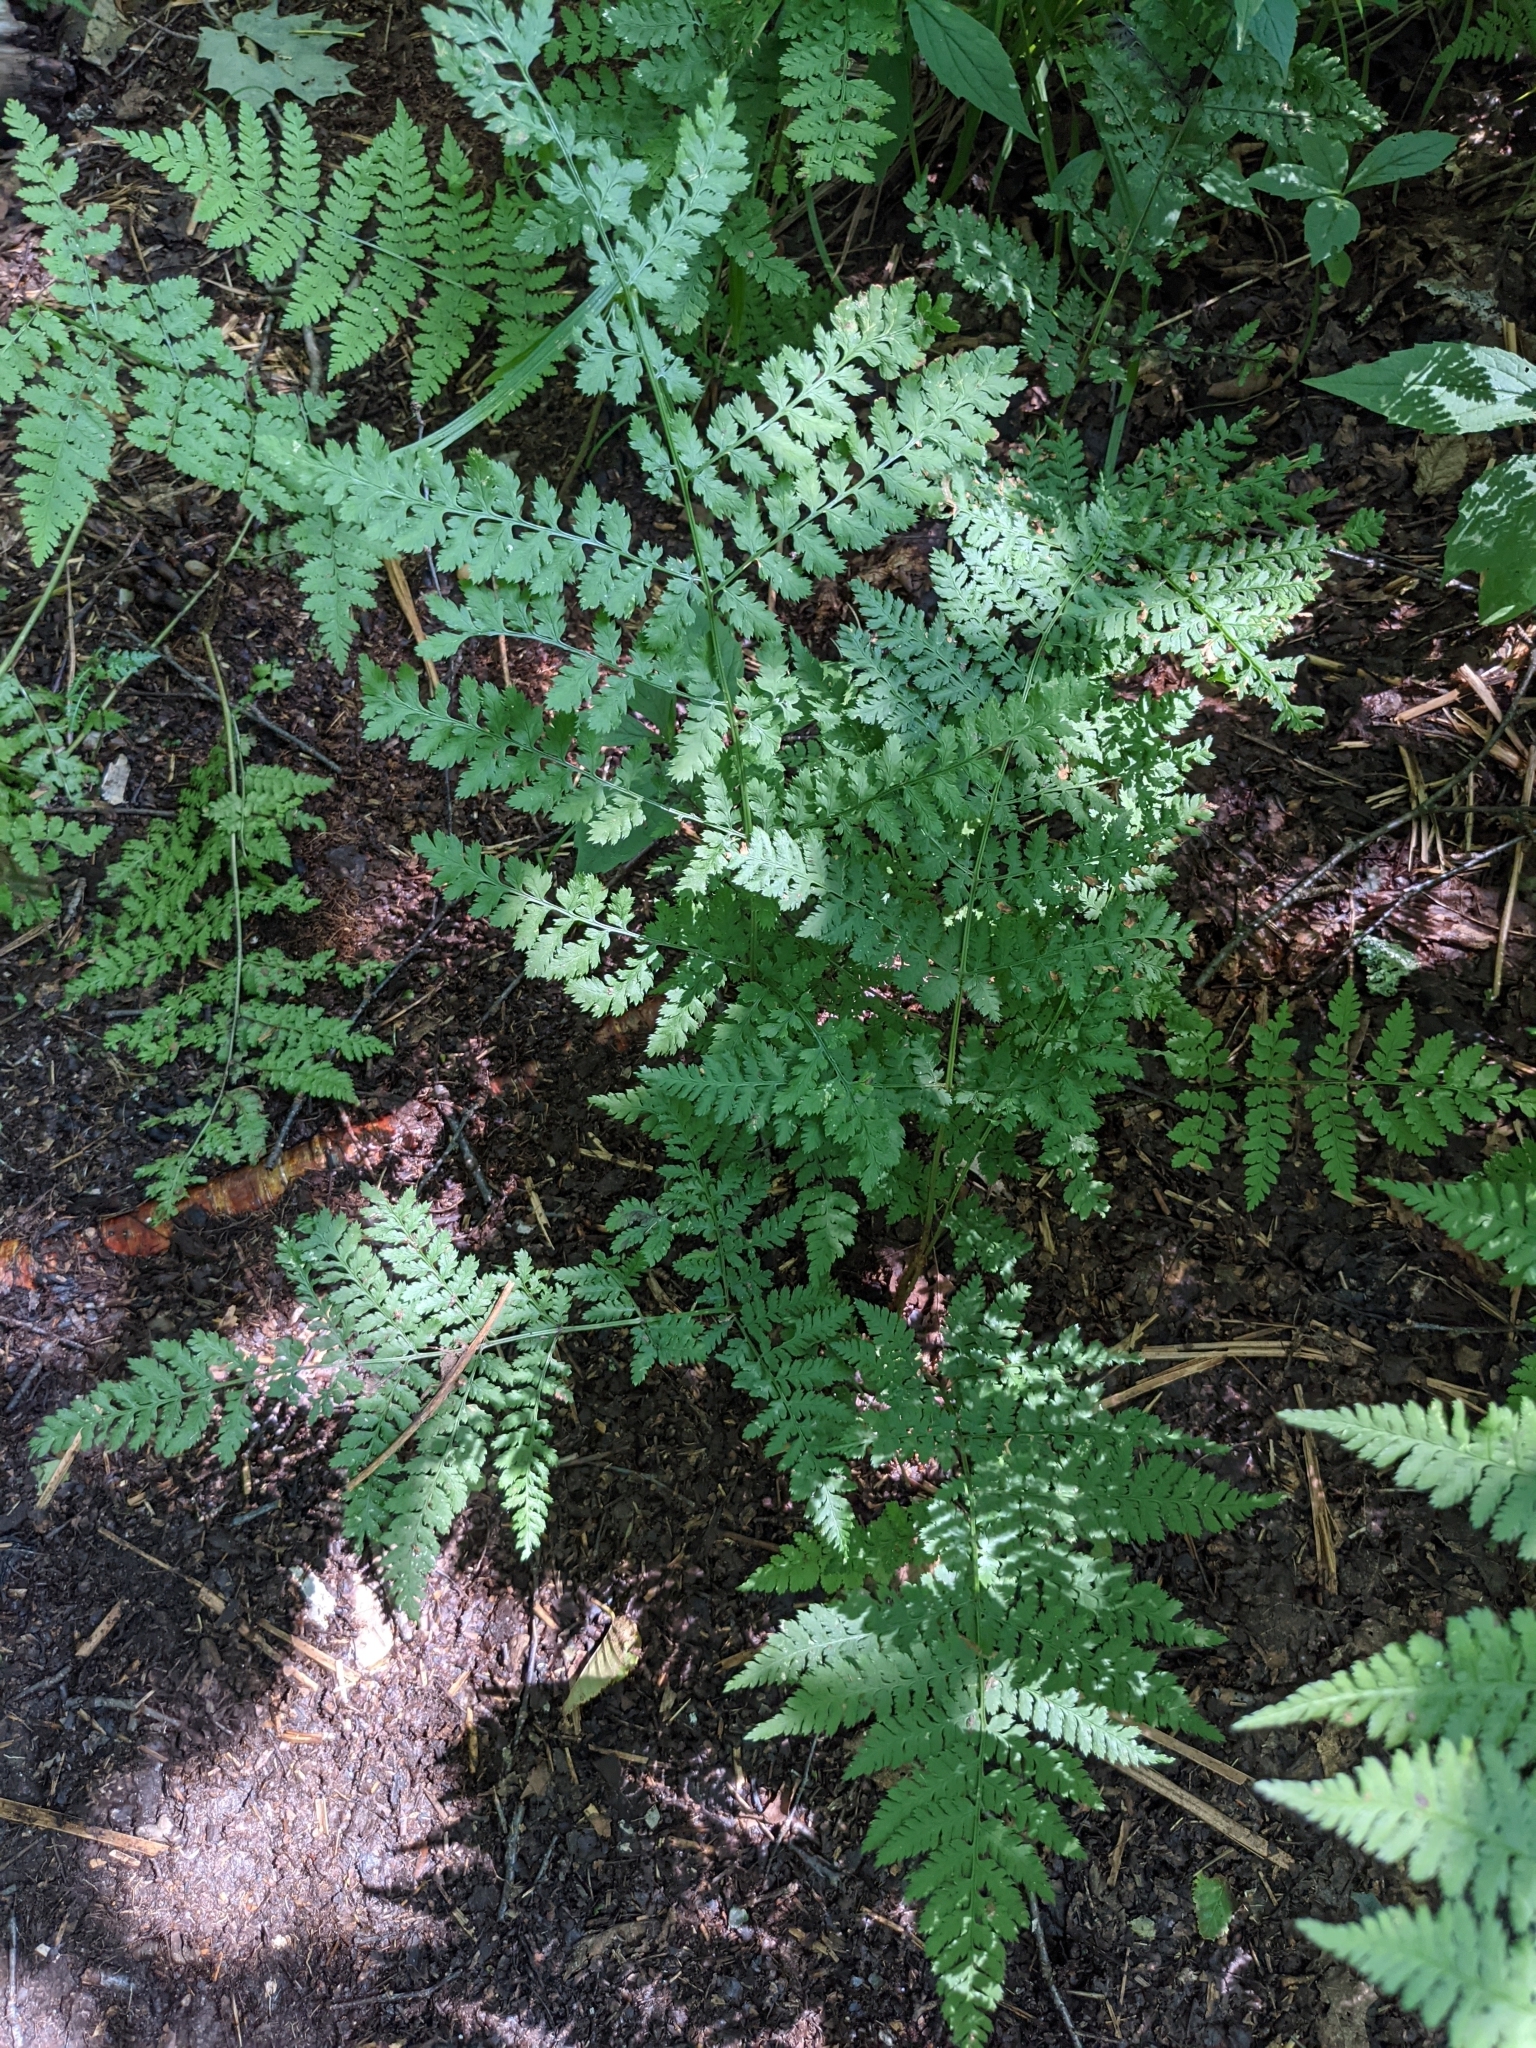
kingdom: Plantae
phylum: Tracheophyta
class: Polypodiopsida
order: Polypodiales
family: Dryopteridaceae
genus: Dryopteris
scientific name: Dryopteris intermedia
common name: Evergreen wood fern
